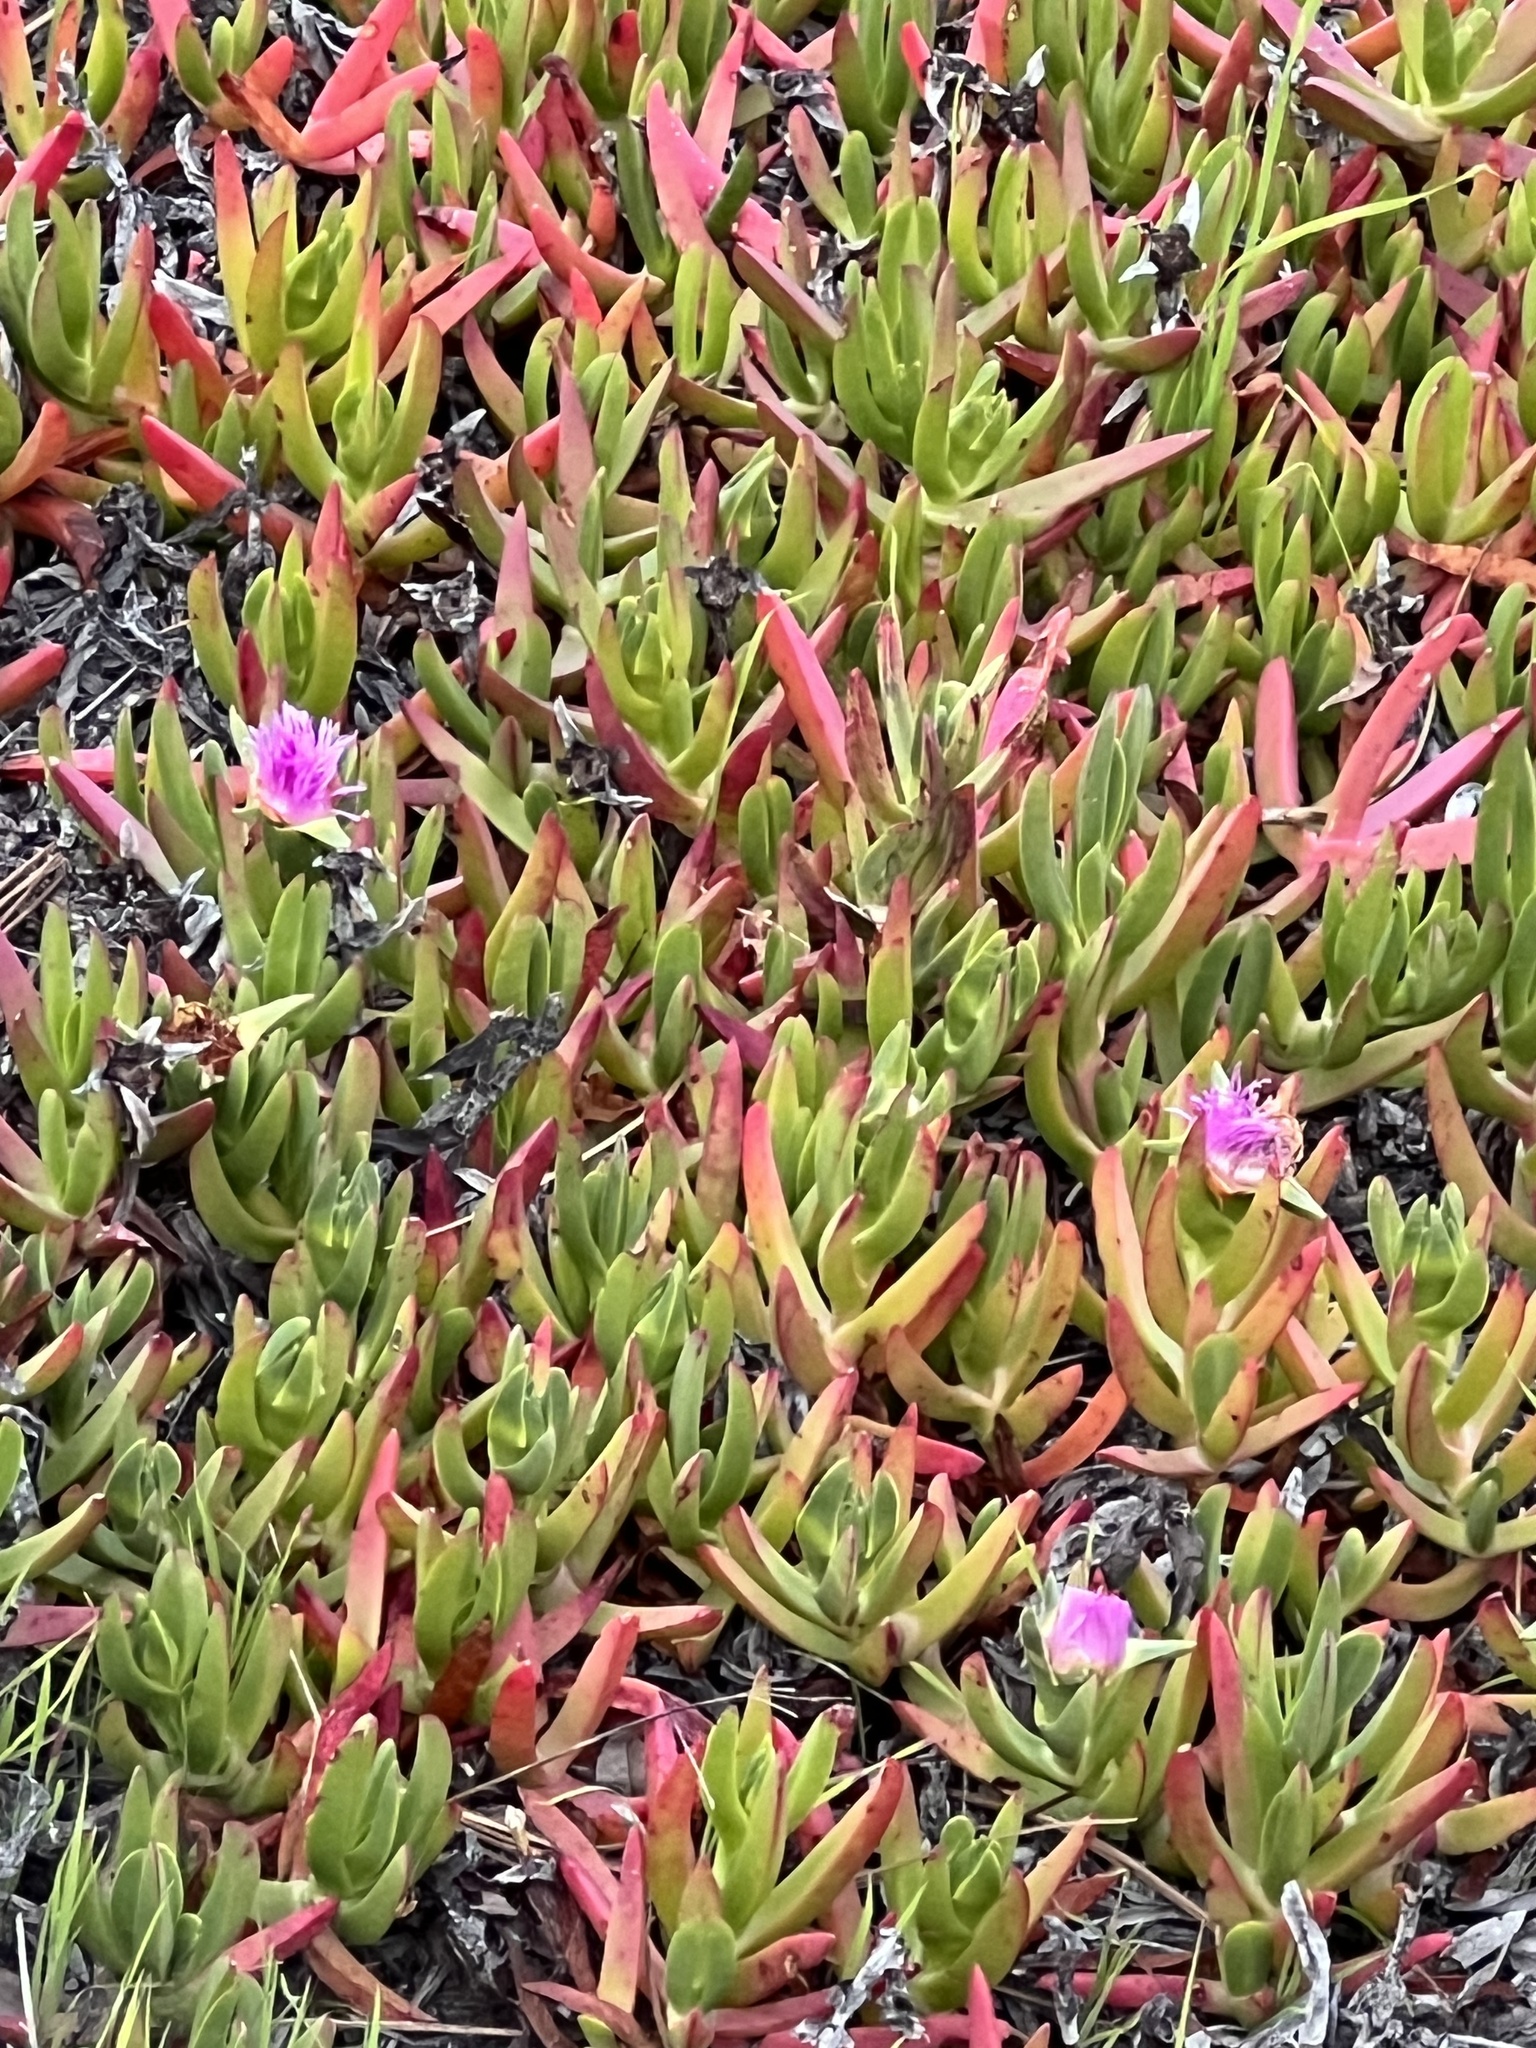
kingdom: Plantae
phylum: Tracheophyta
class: Magnoliopsida
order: Caryophyllales
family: Aizoaceae
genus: Carpobrotus
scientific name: Carpobrotus chilensis
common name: Sea fig
